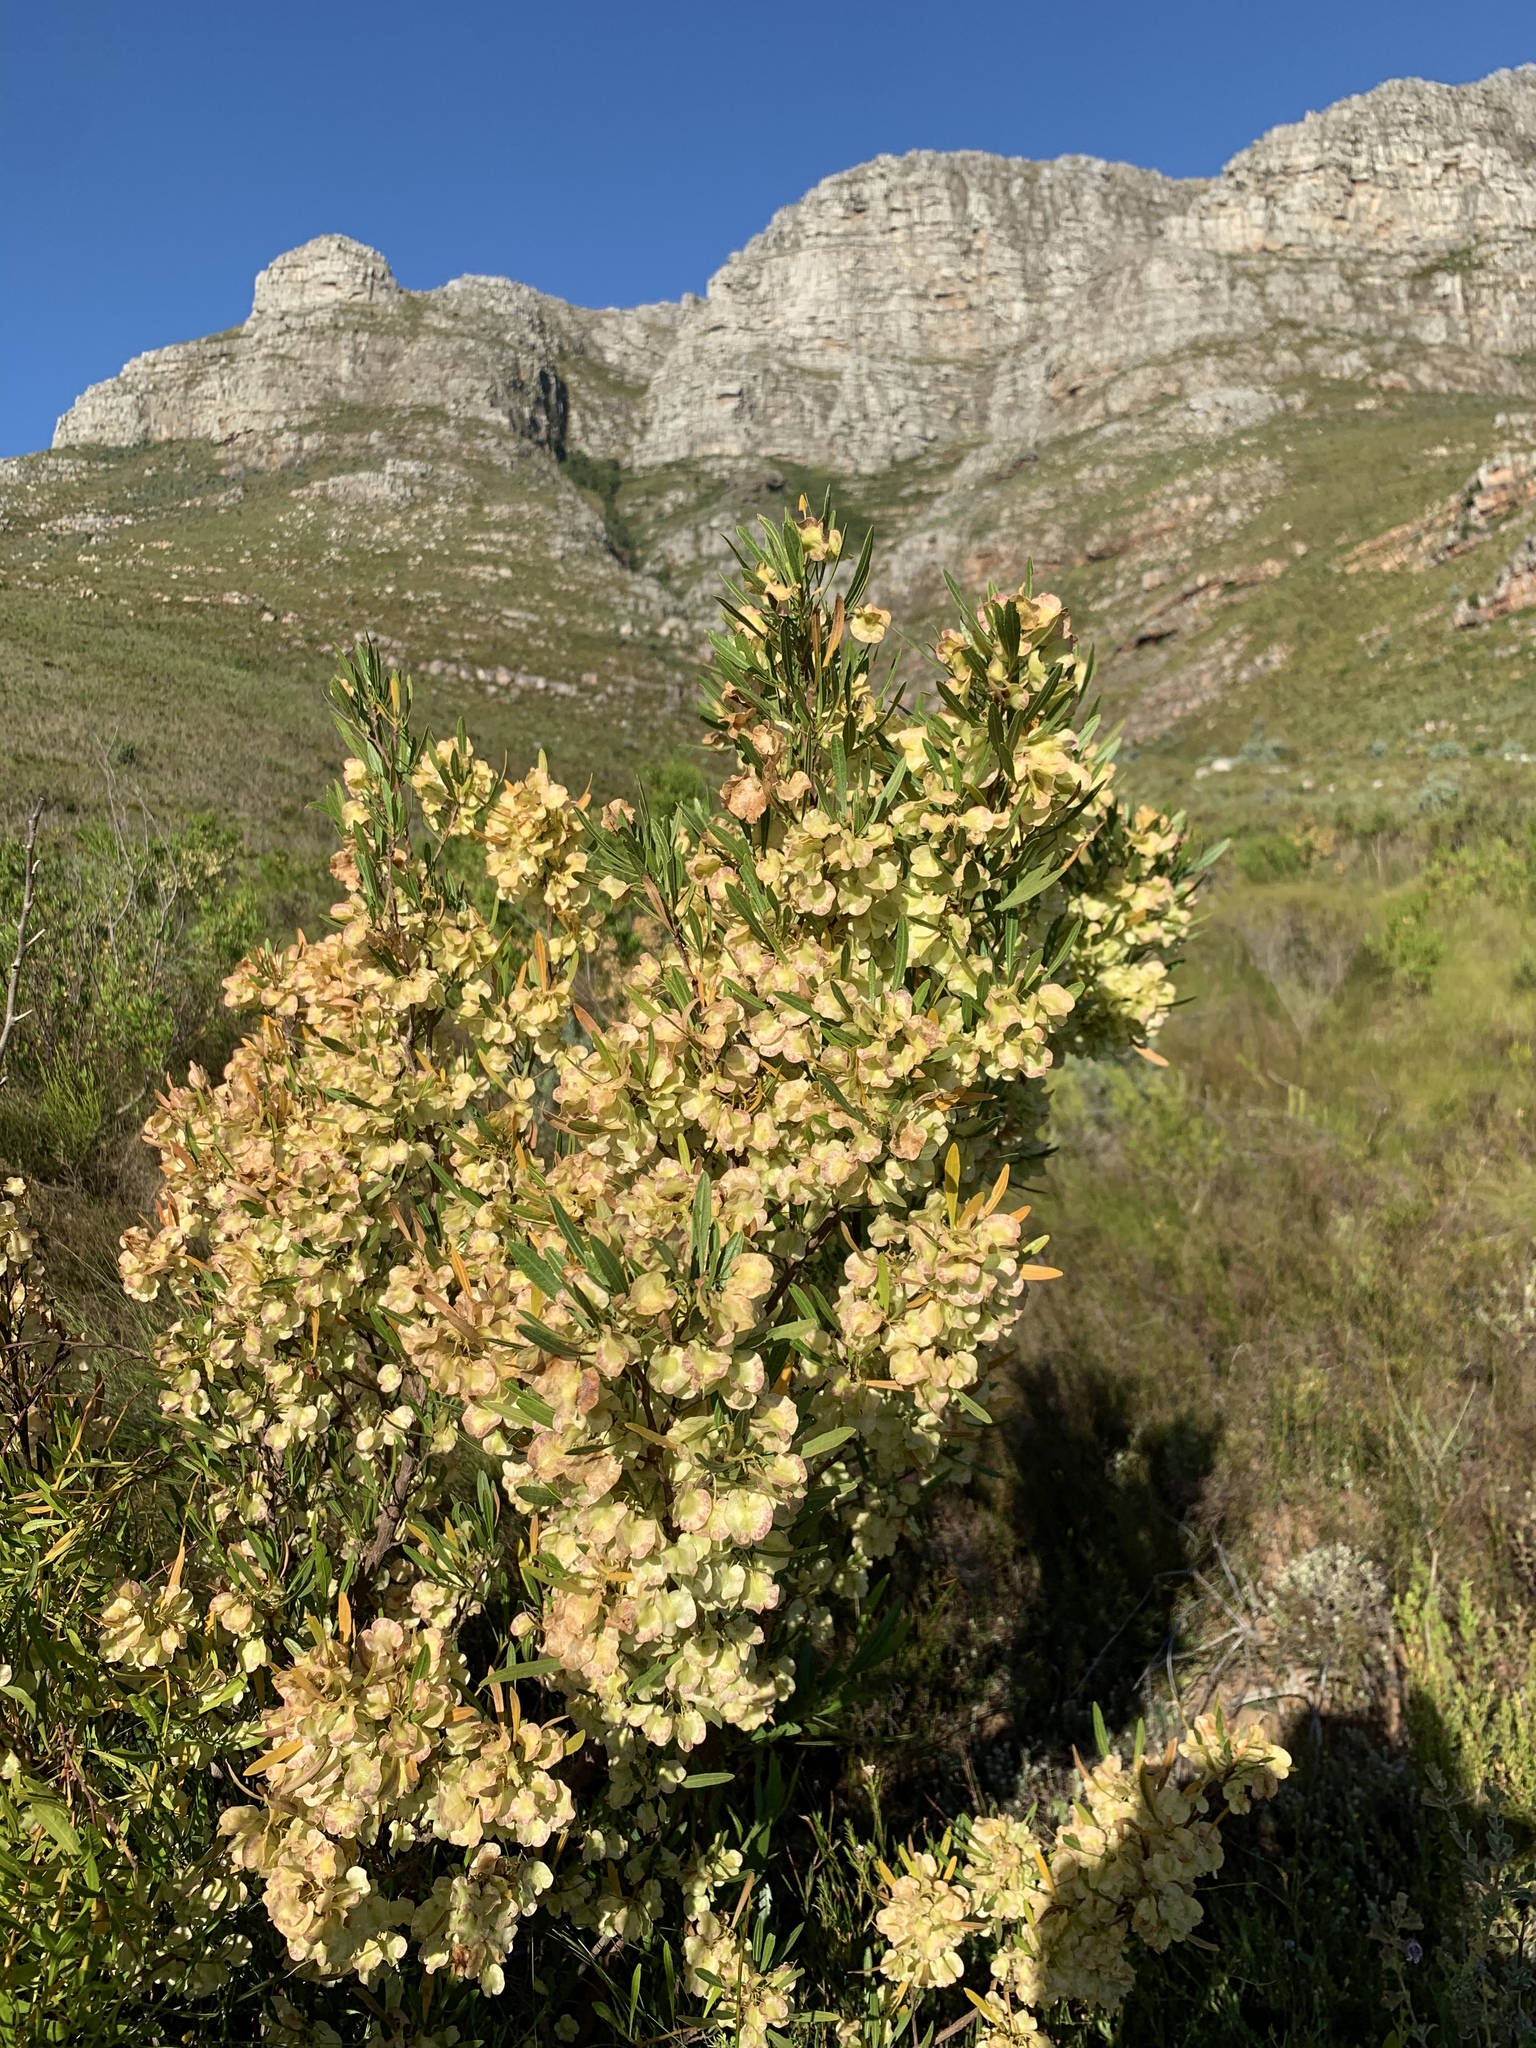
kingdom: Plantae
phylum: Tracheophyta
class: Magnoliopsida
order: Sapindales
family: Sapindaceae
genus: Dodonaea
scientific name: Dodonaea viscosa
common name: Hopbush
